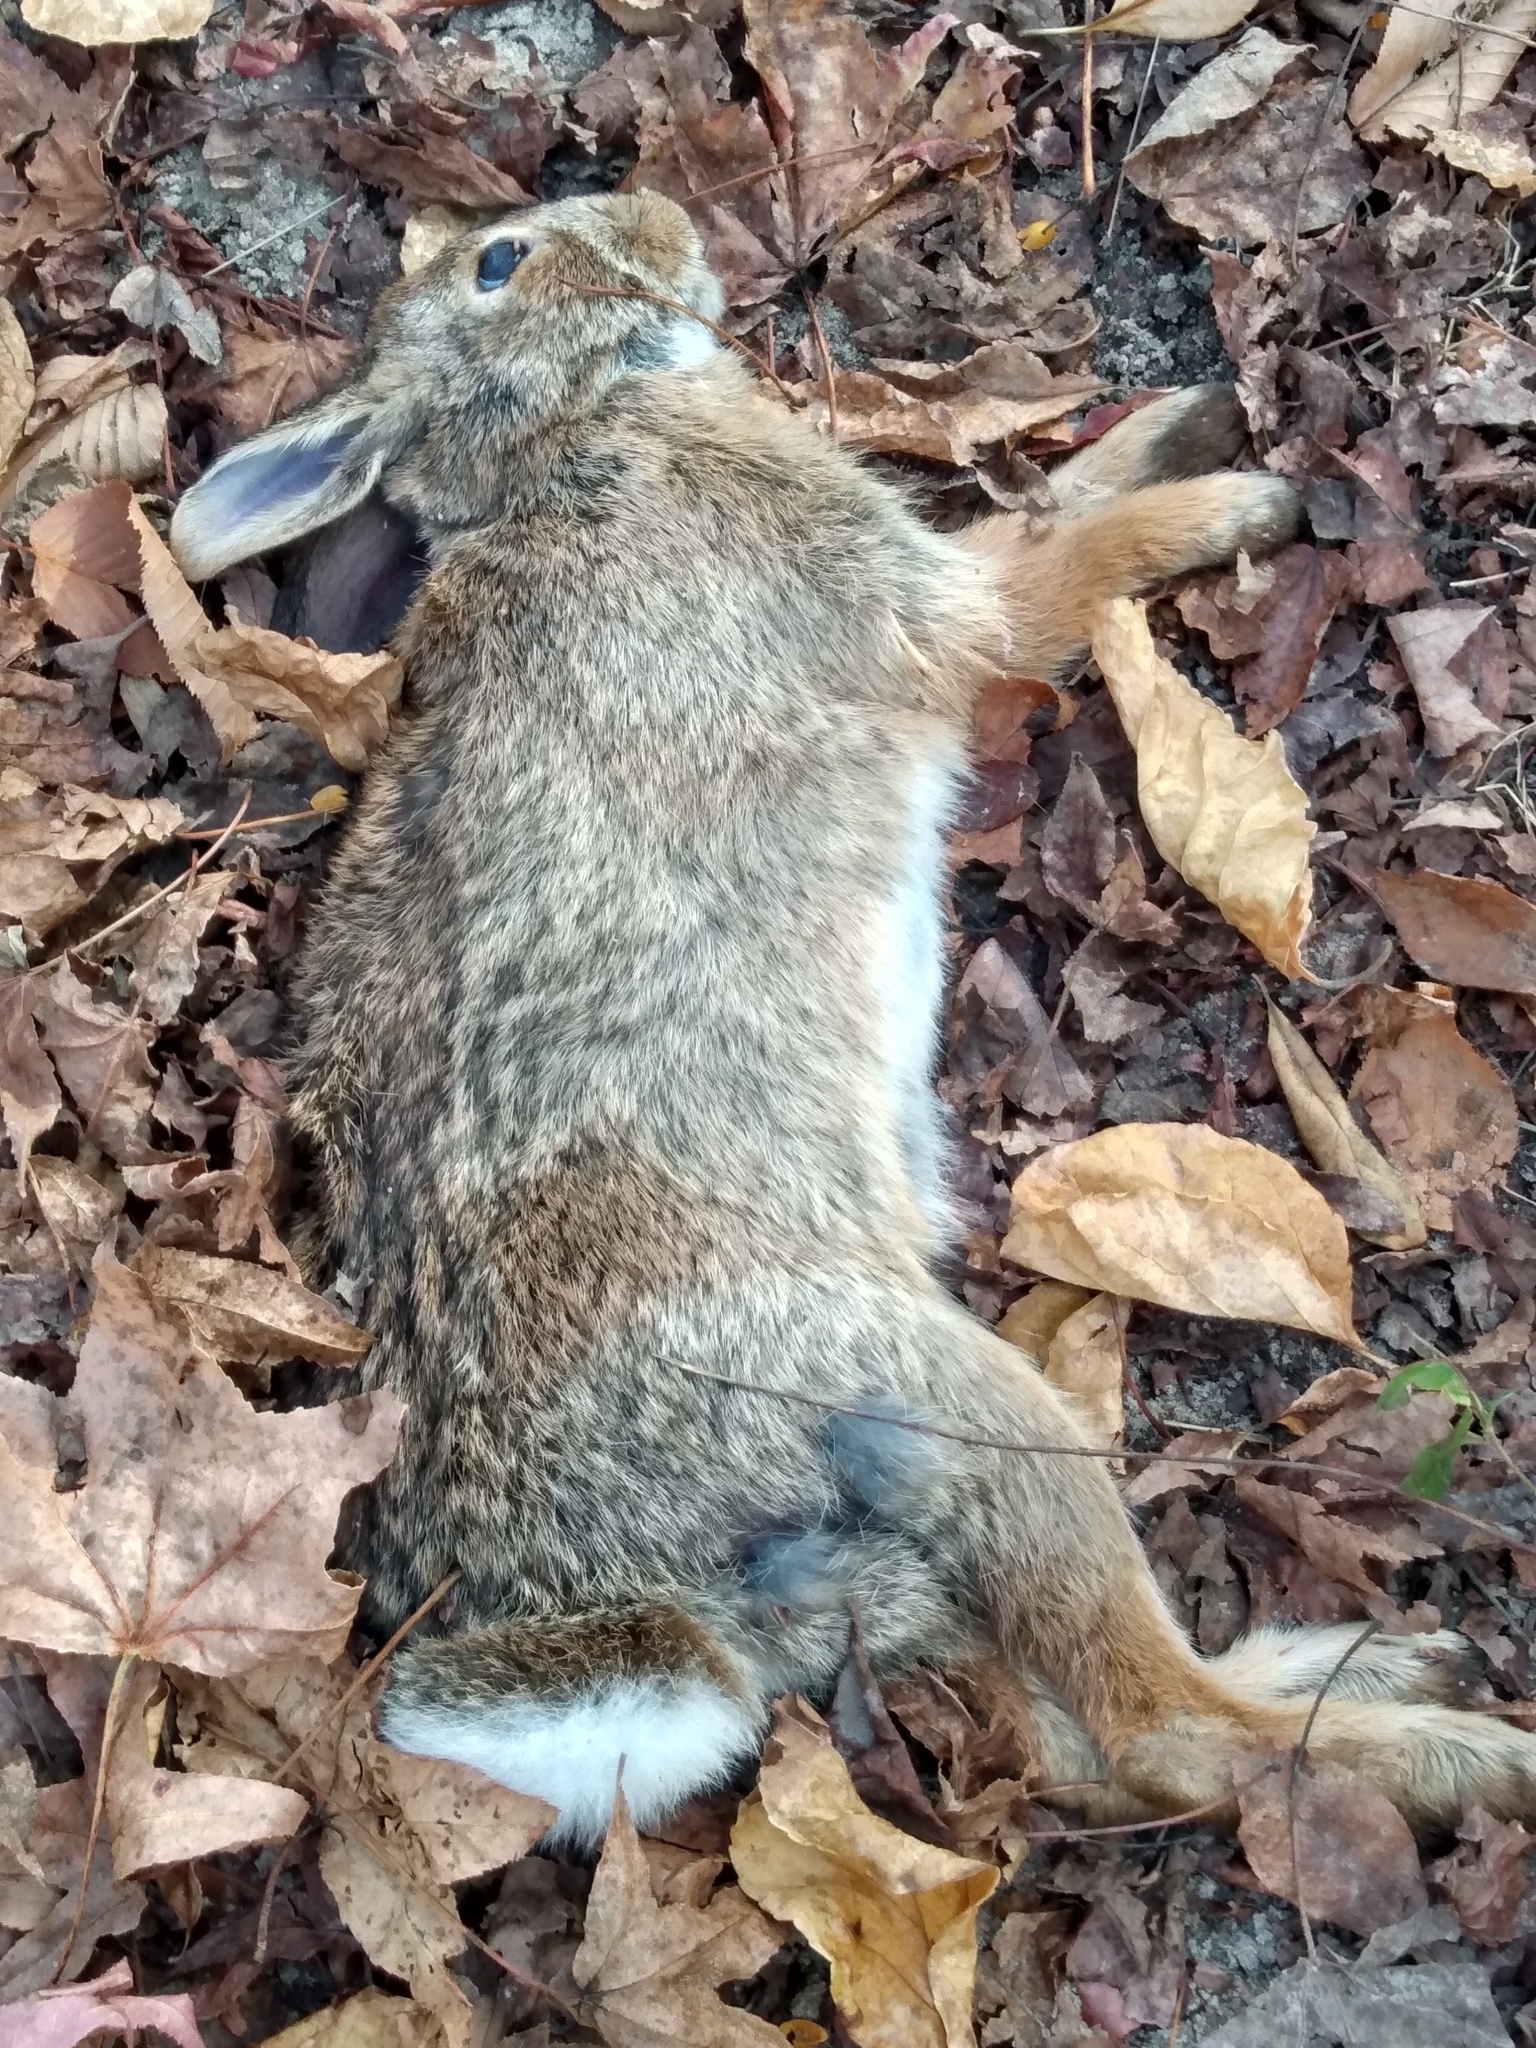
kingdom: Animalia
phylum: Chordata
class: Mammalia
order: Lagomorpha
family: Leporidae
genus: Sylvilagus
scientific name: Sylvilagus floridanus
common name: Eastern cottontail
